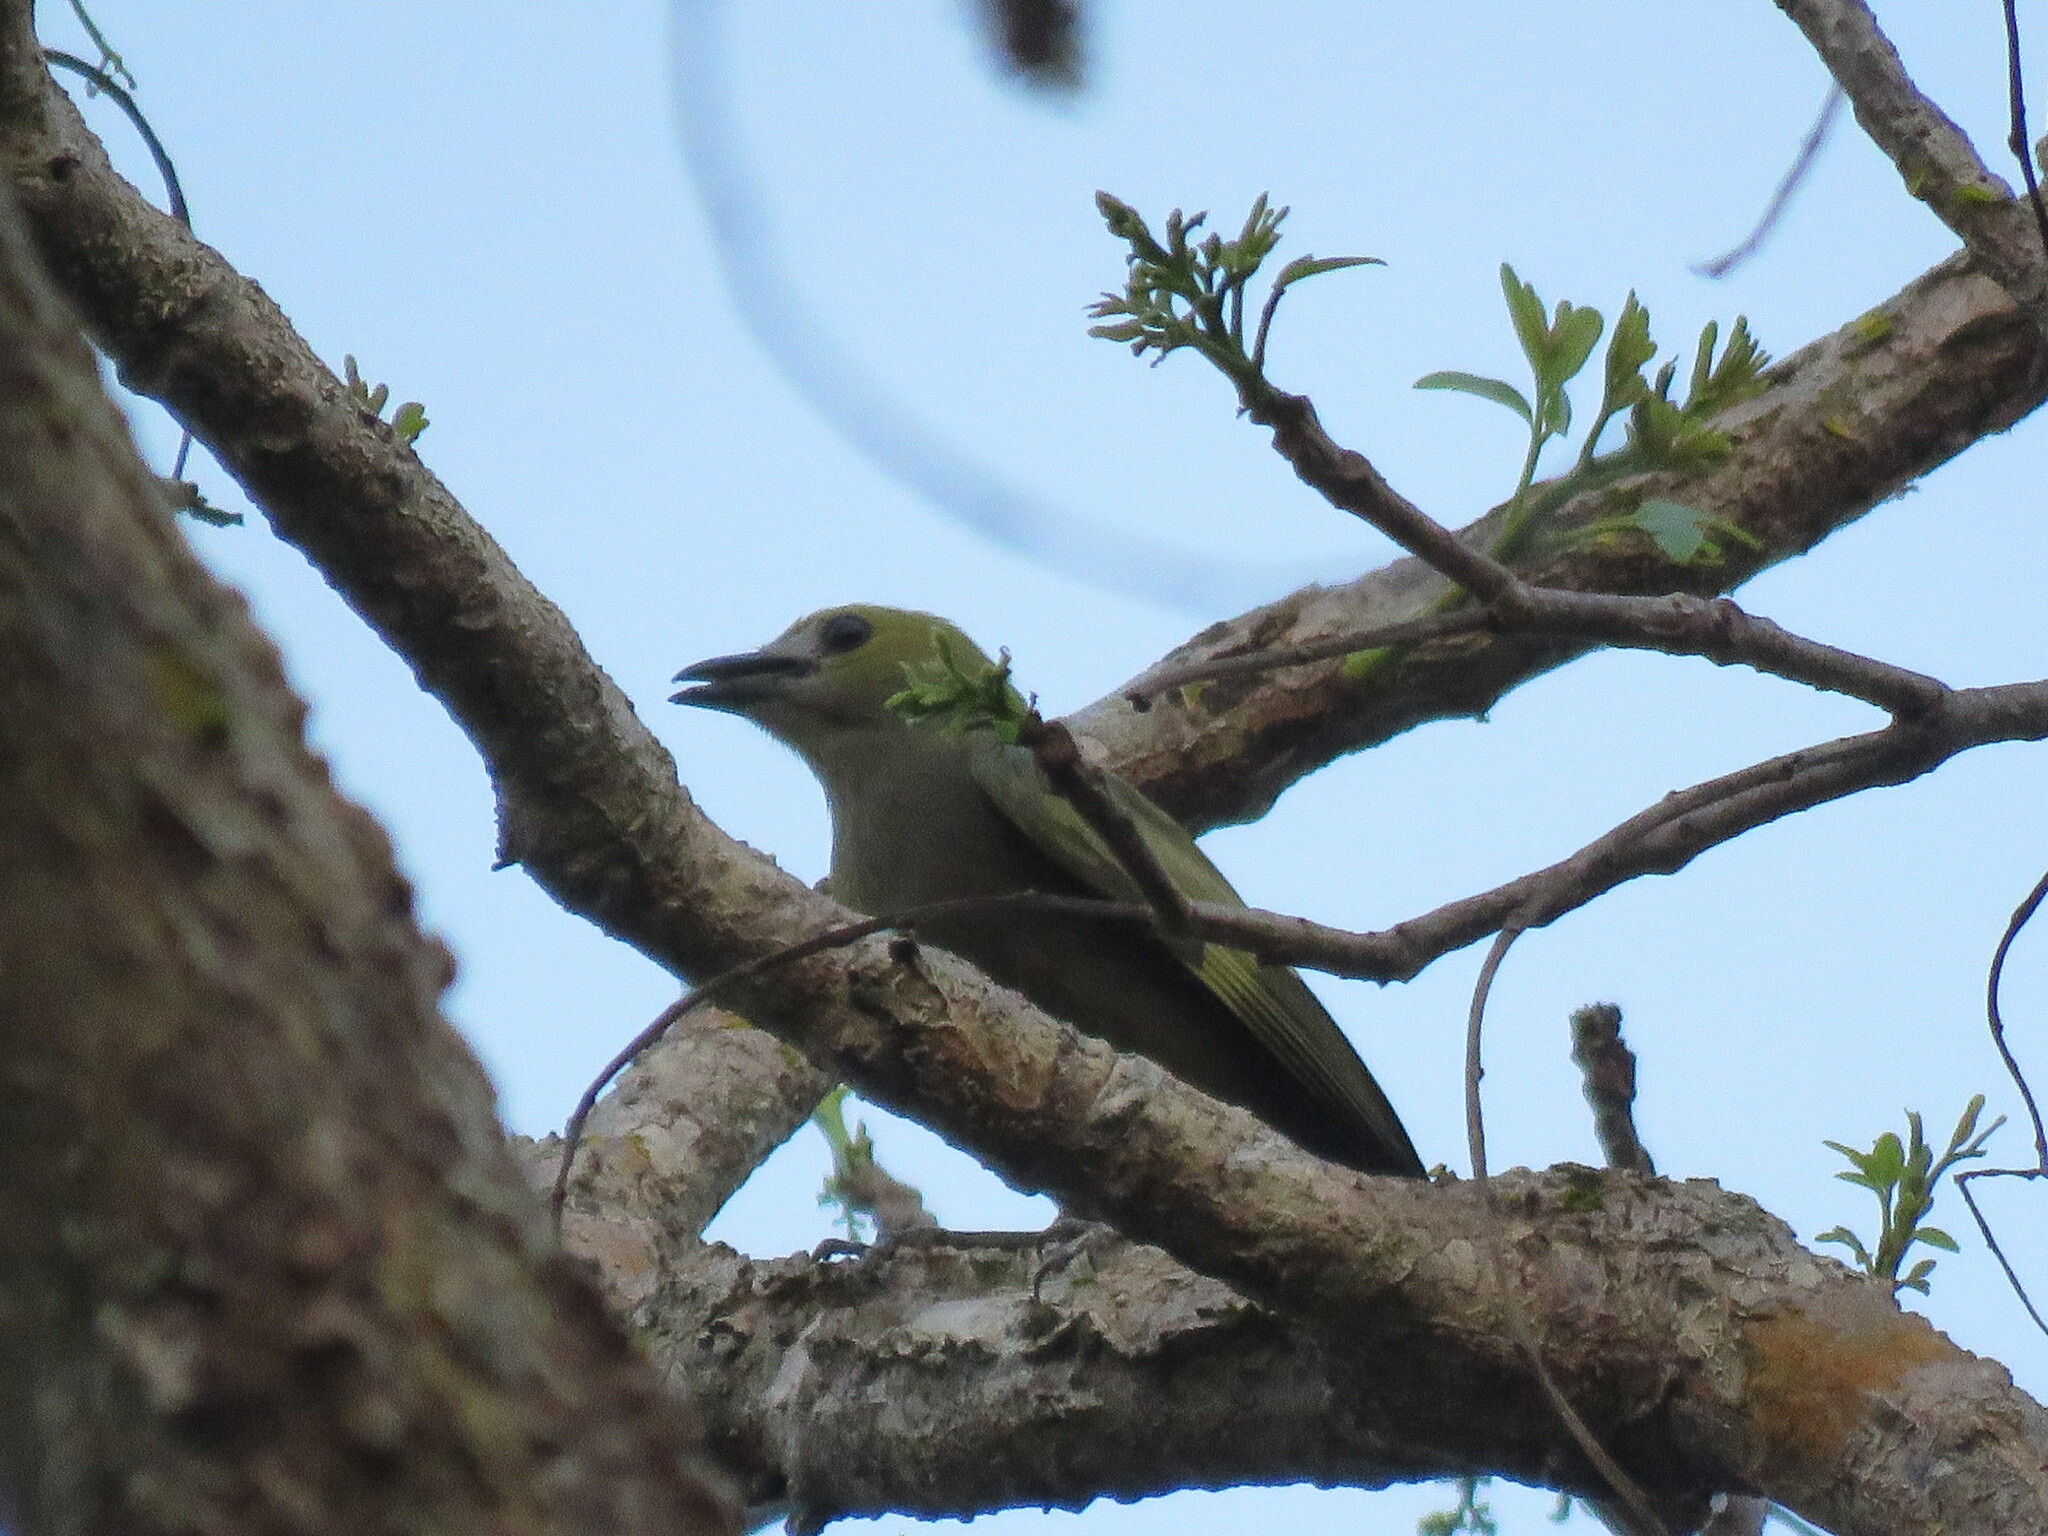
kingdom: Animalia
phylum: Chordata
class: Aves
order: Passeriformes
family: Thraupidae
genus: Thraupis
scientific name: Thraupis palmarum
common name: Palm tanager
